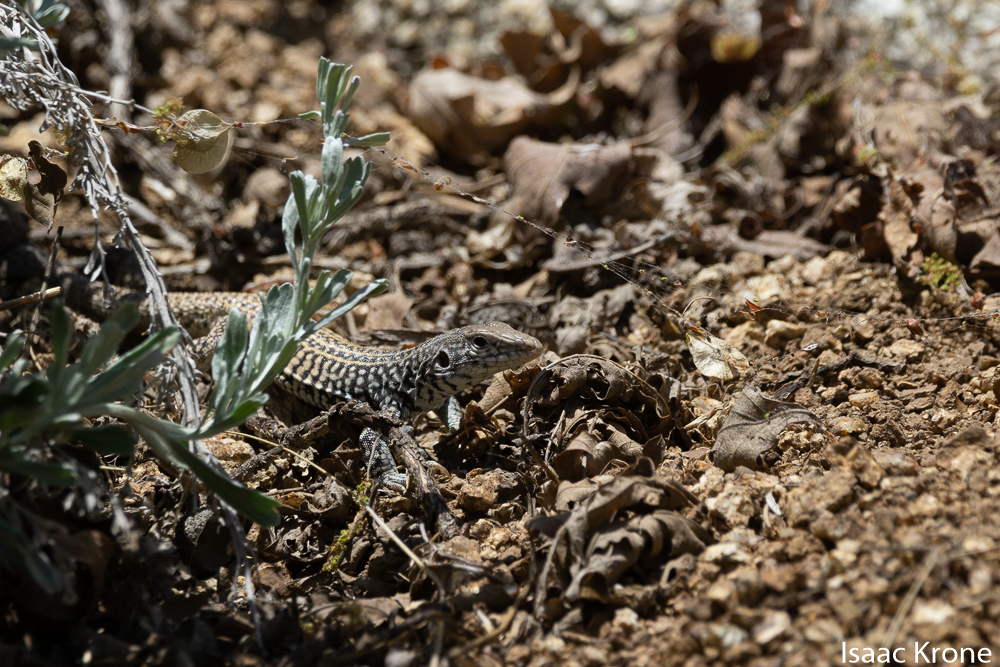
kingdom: Animalia
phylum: Chordata
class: Squamata
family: Teiidae
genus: Aspidoscelis
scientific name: Aspidoscelis tigris
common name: Tiger whiptail
